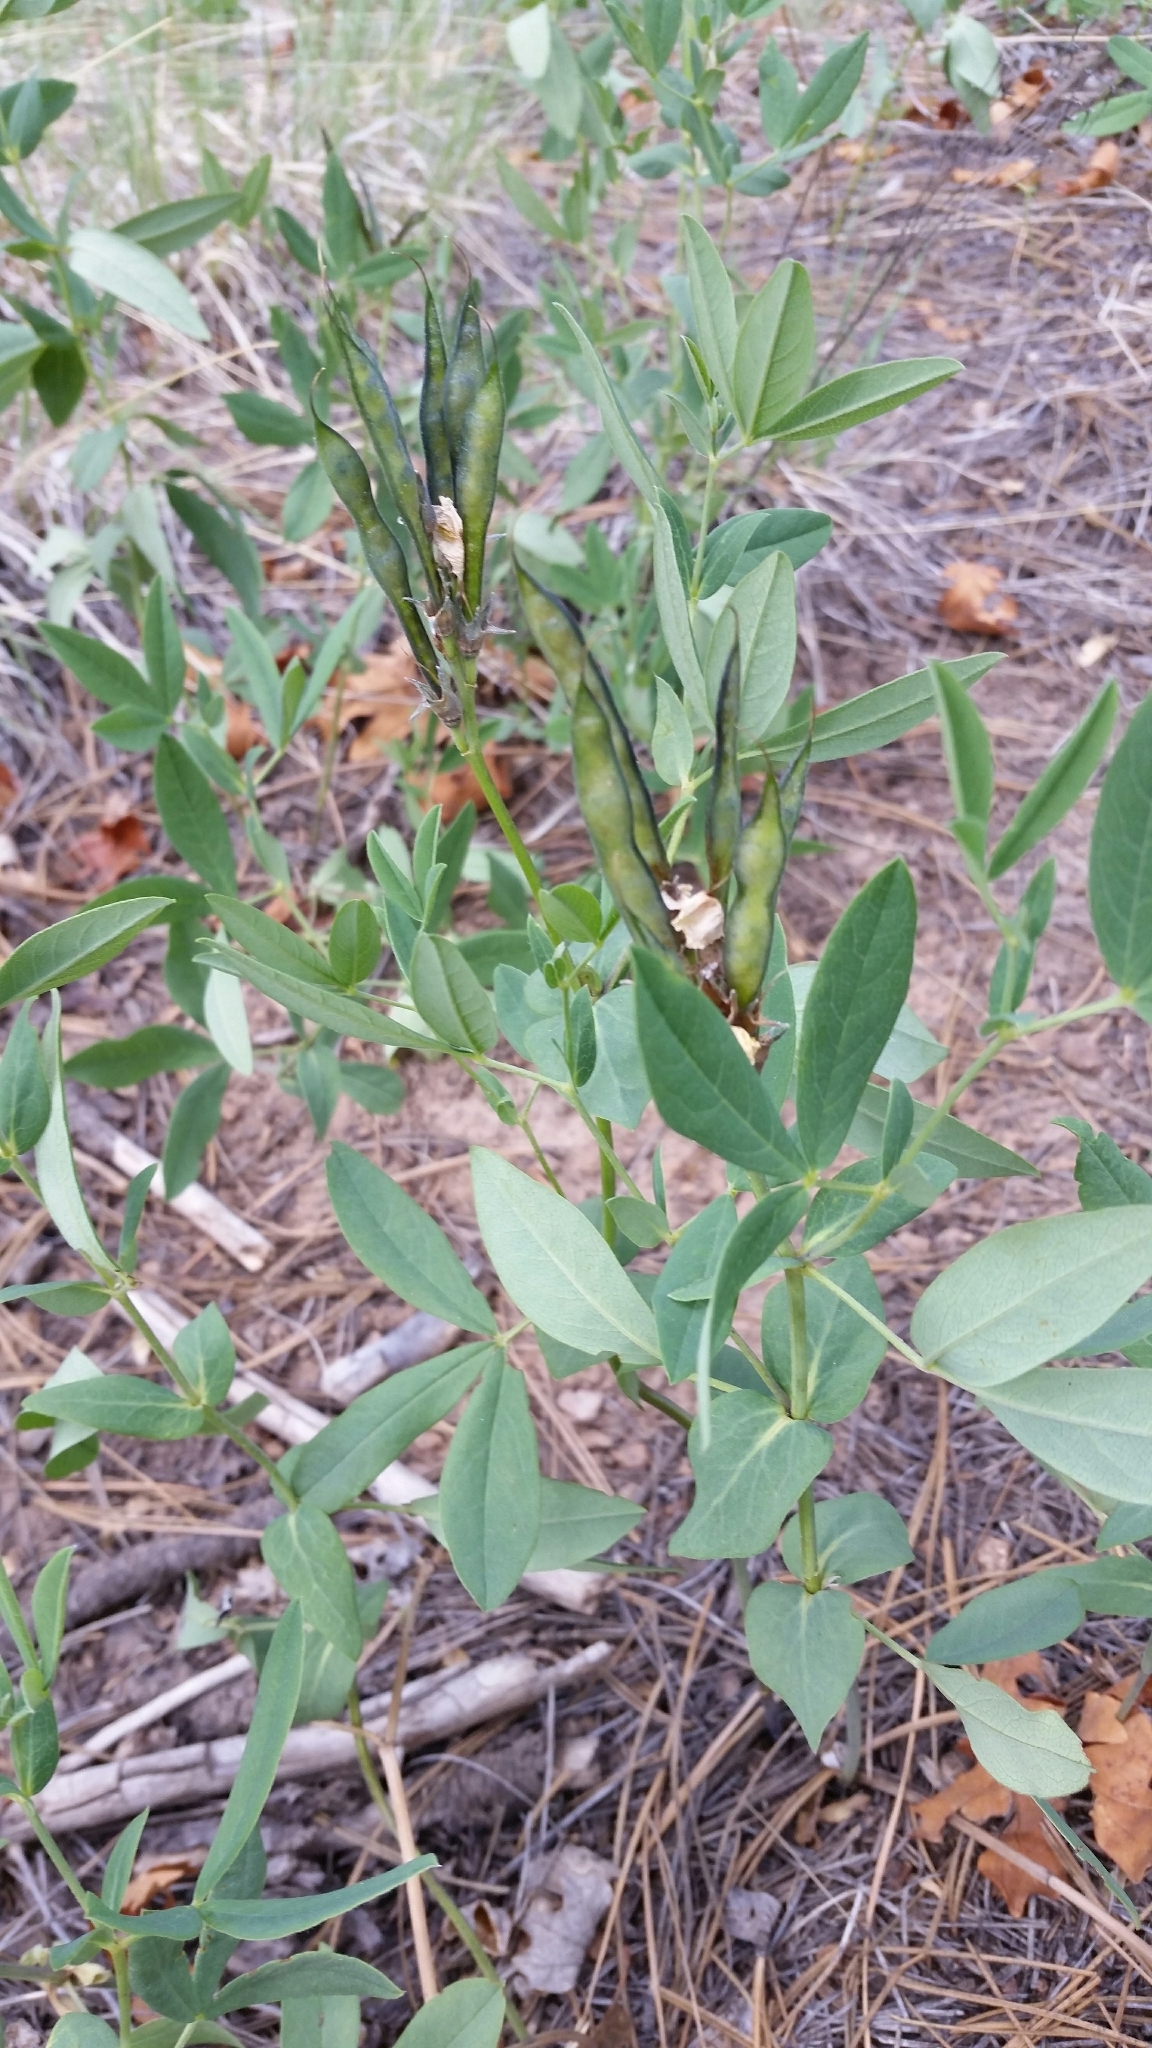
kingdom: Plantae
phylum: Tracheophyta
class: Magnoliopsida
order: Fabales
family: Fabaceae
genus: Thermopsis
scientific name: Thermopsis montana
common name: False lupin
